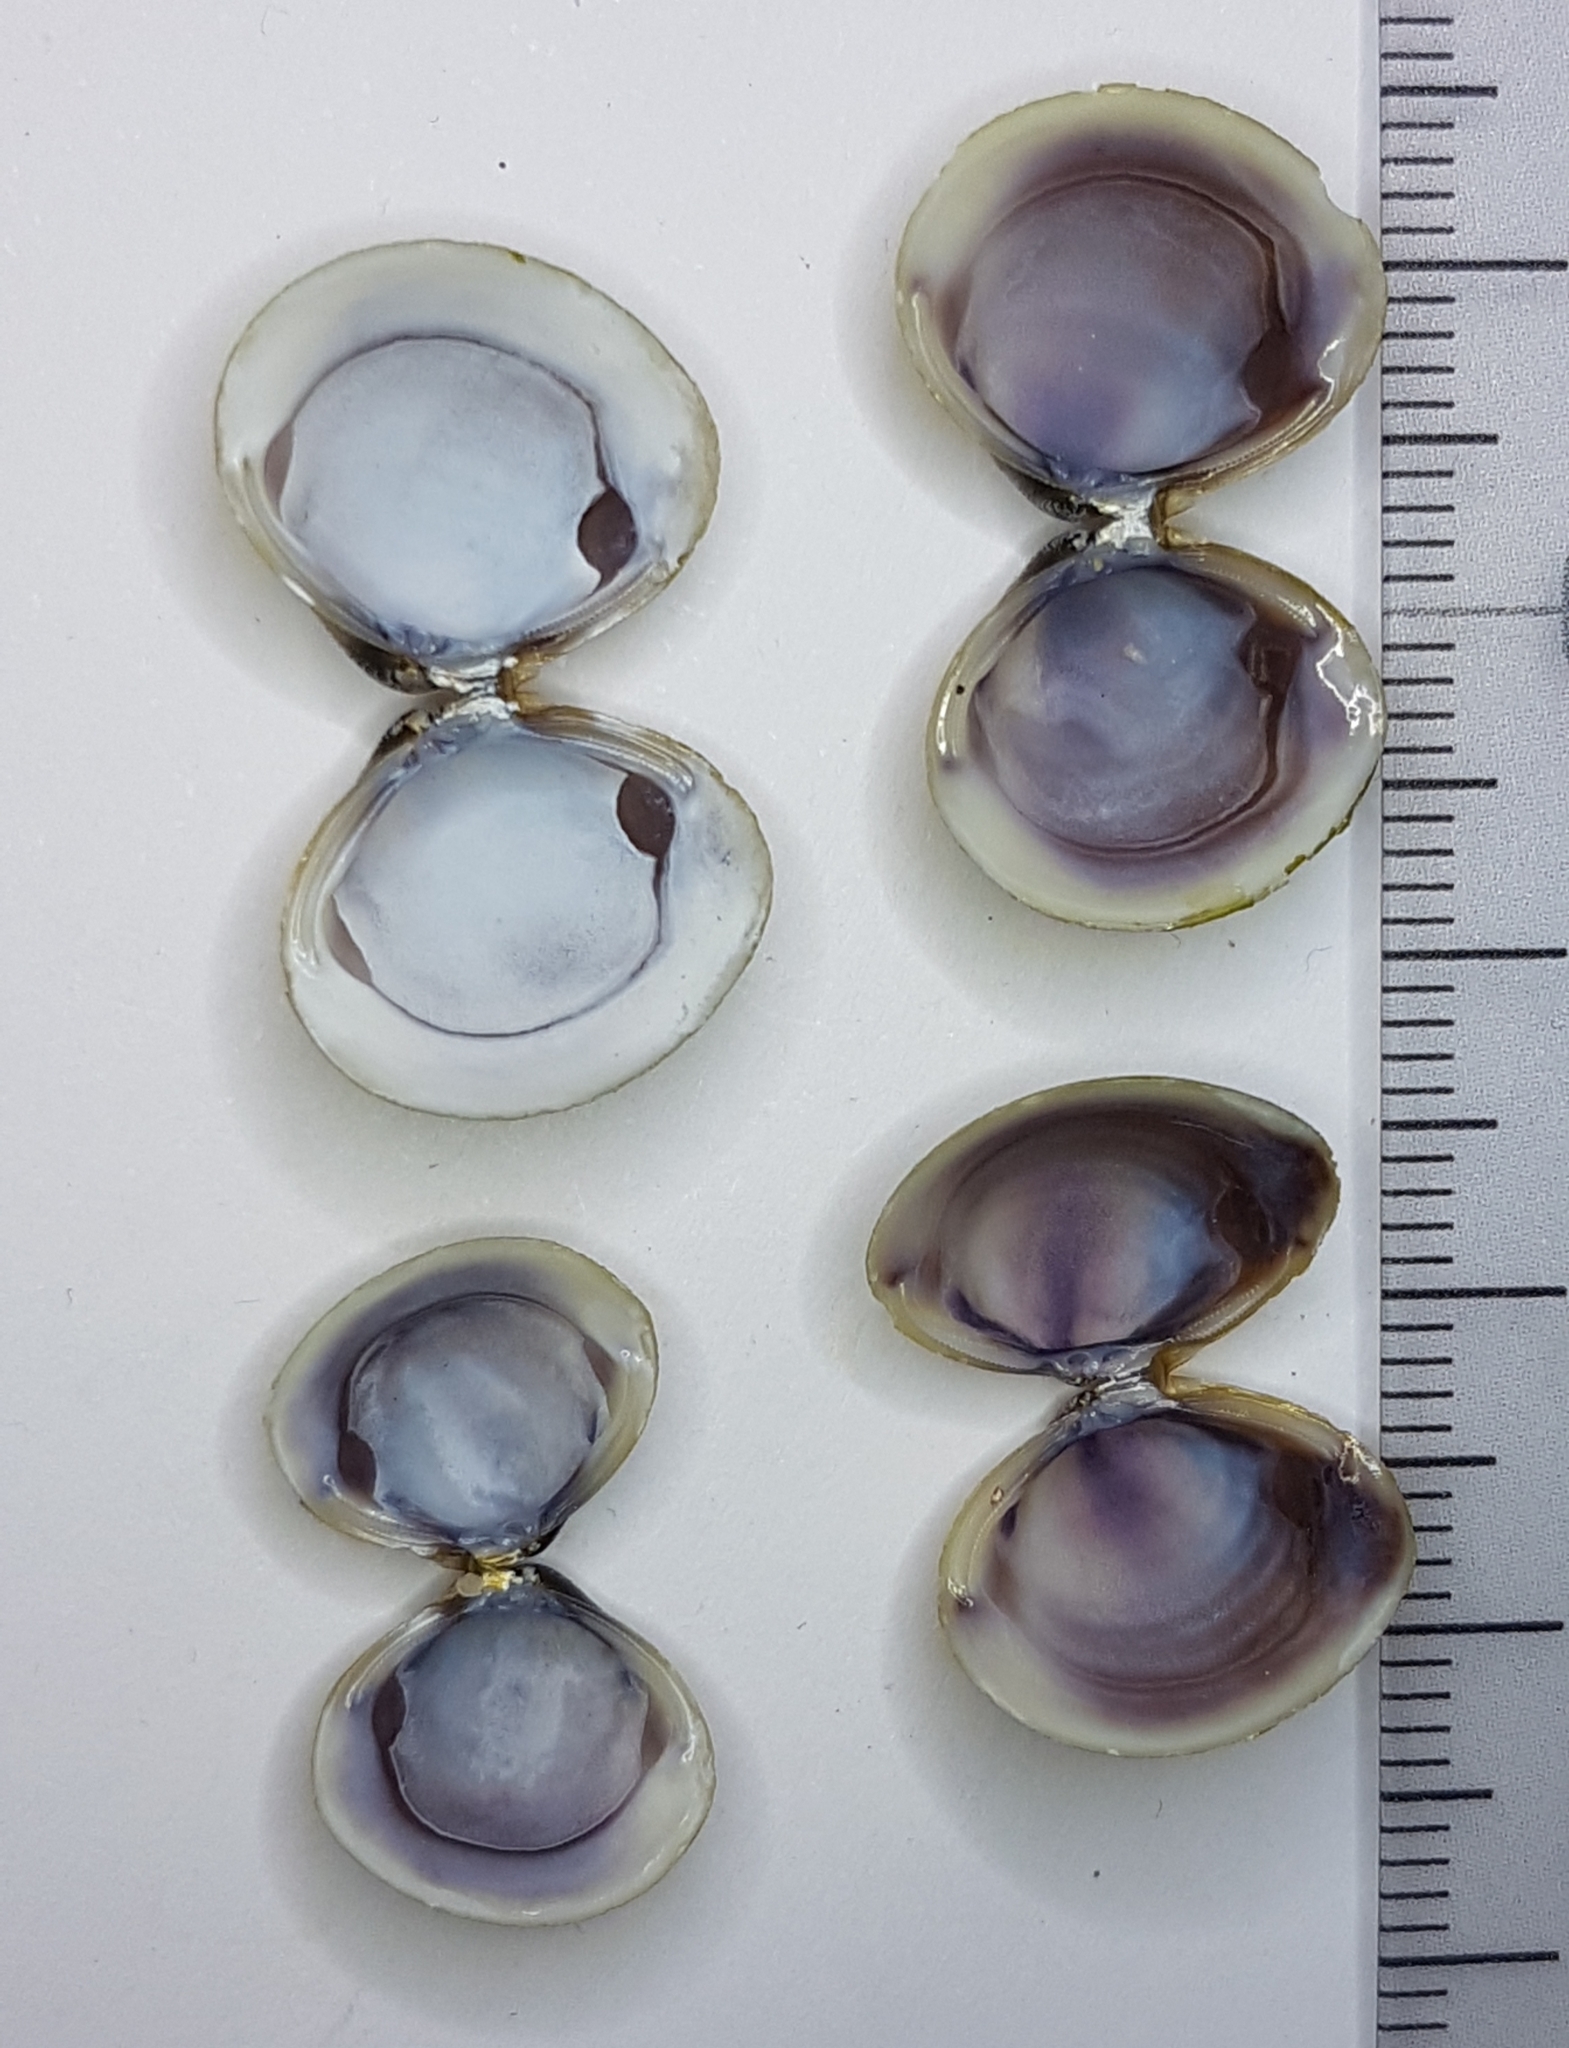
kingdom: Animalia
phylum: Mollusca
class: Bivalvia
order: Venerida
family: Cyrenidae
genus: Corbicula
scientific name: Corbicula fluminea
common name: Asian clam
